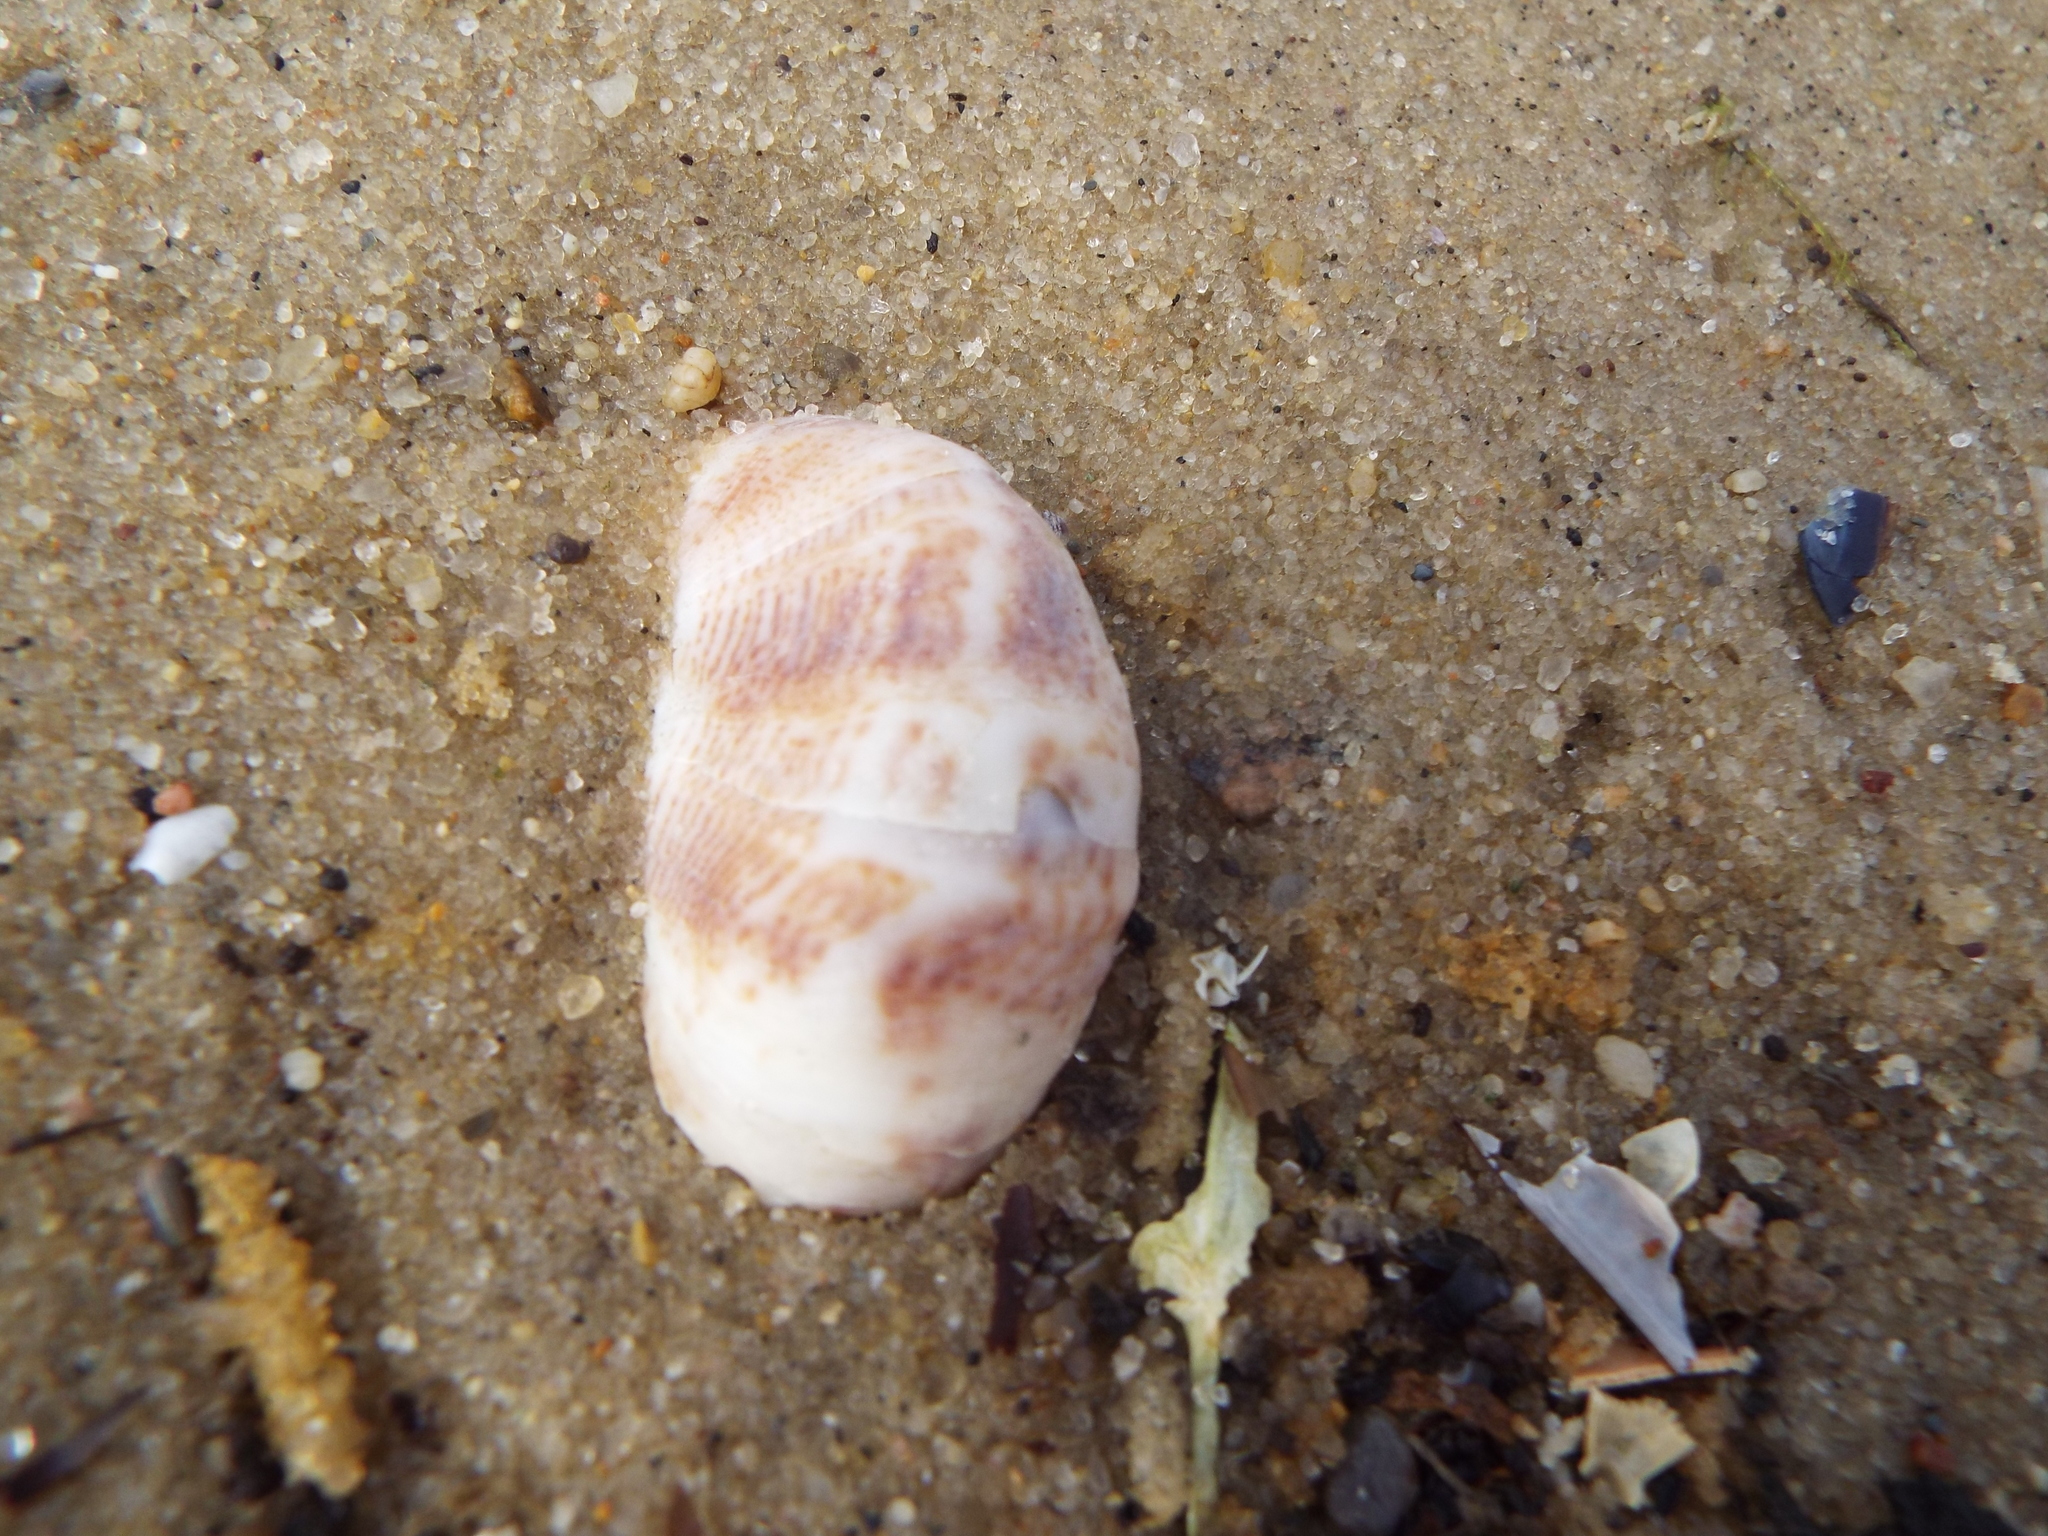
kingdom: Animalia
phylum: Mollusca
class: Gastropoda
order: Littorinimorpha
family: Calyptraeidae
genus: Crepidula
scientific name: Crepidula fornicata
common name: Slipper limpet
